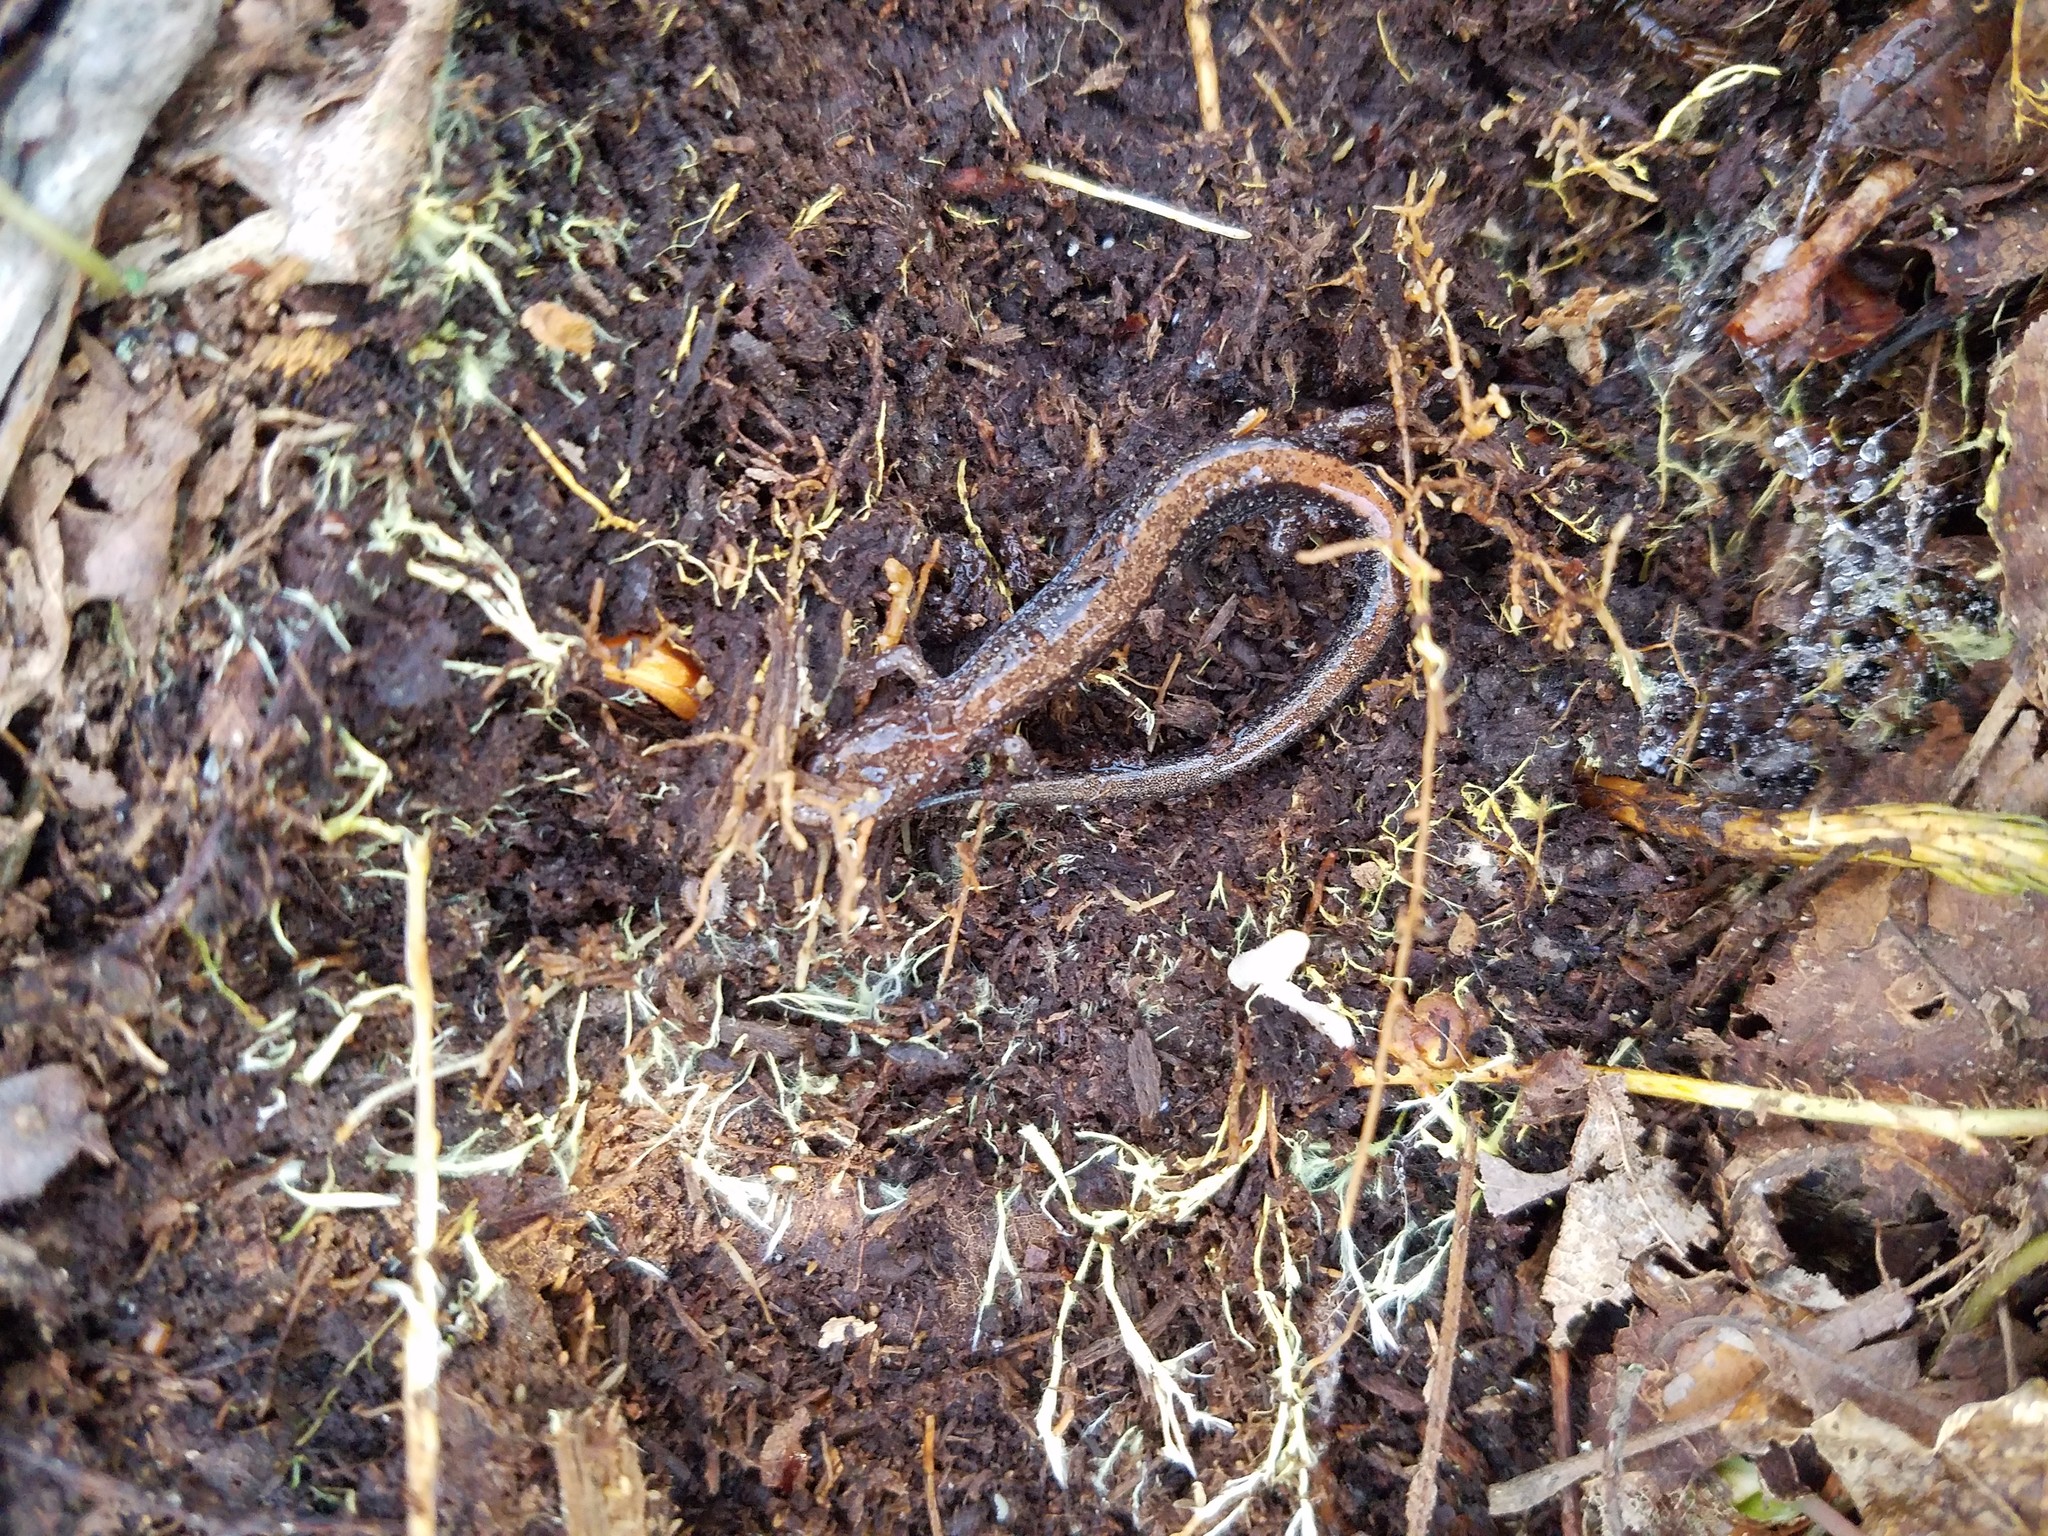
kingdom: Animalia
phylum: Chordata
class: Amphibia
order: Caudata
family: Plethodontidae
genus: Plethodon
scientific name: Plethodon cinereus
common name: Redback salamander
